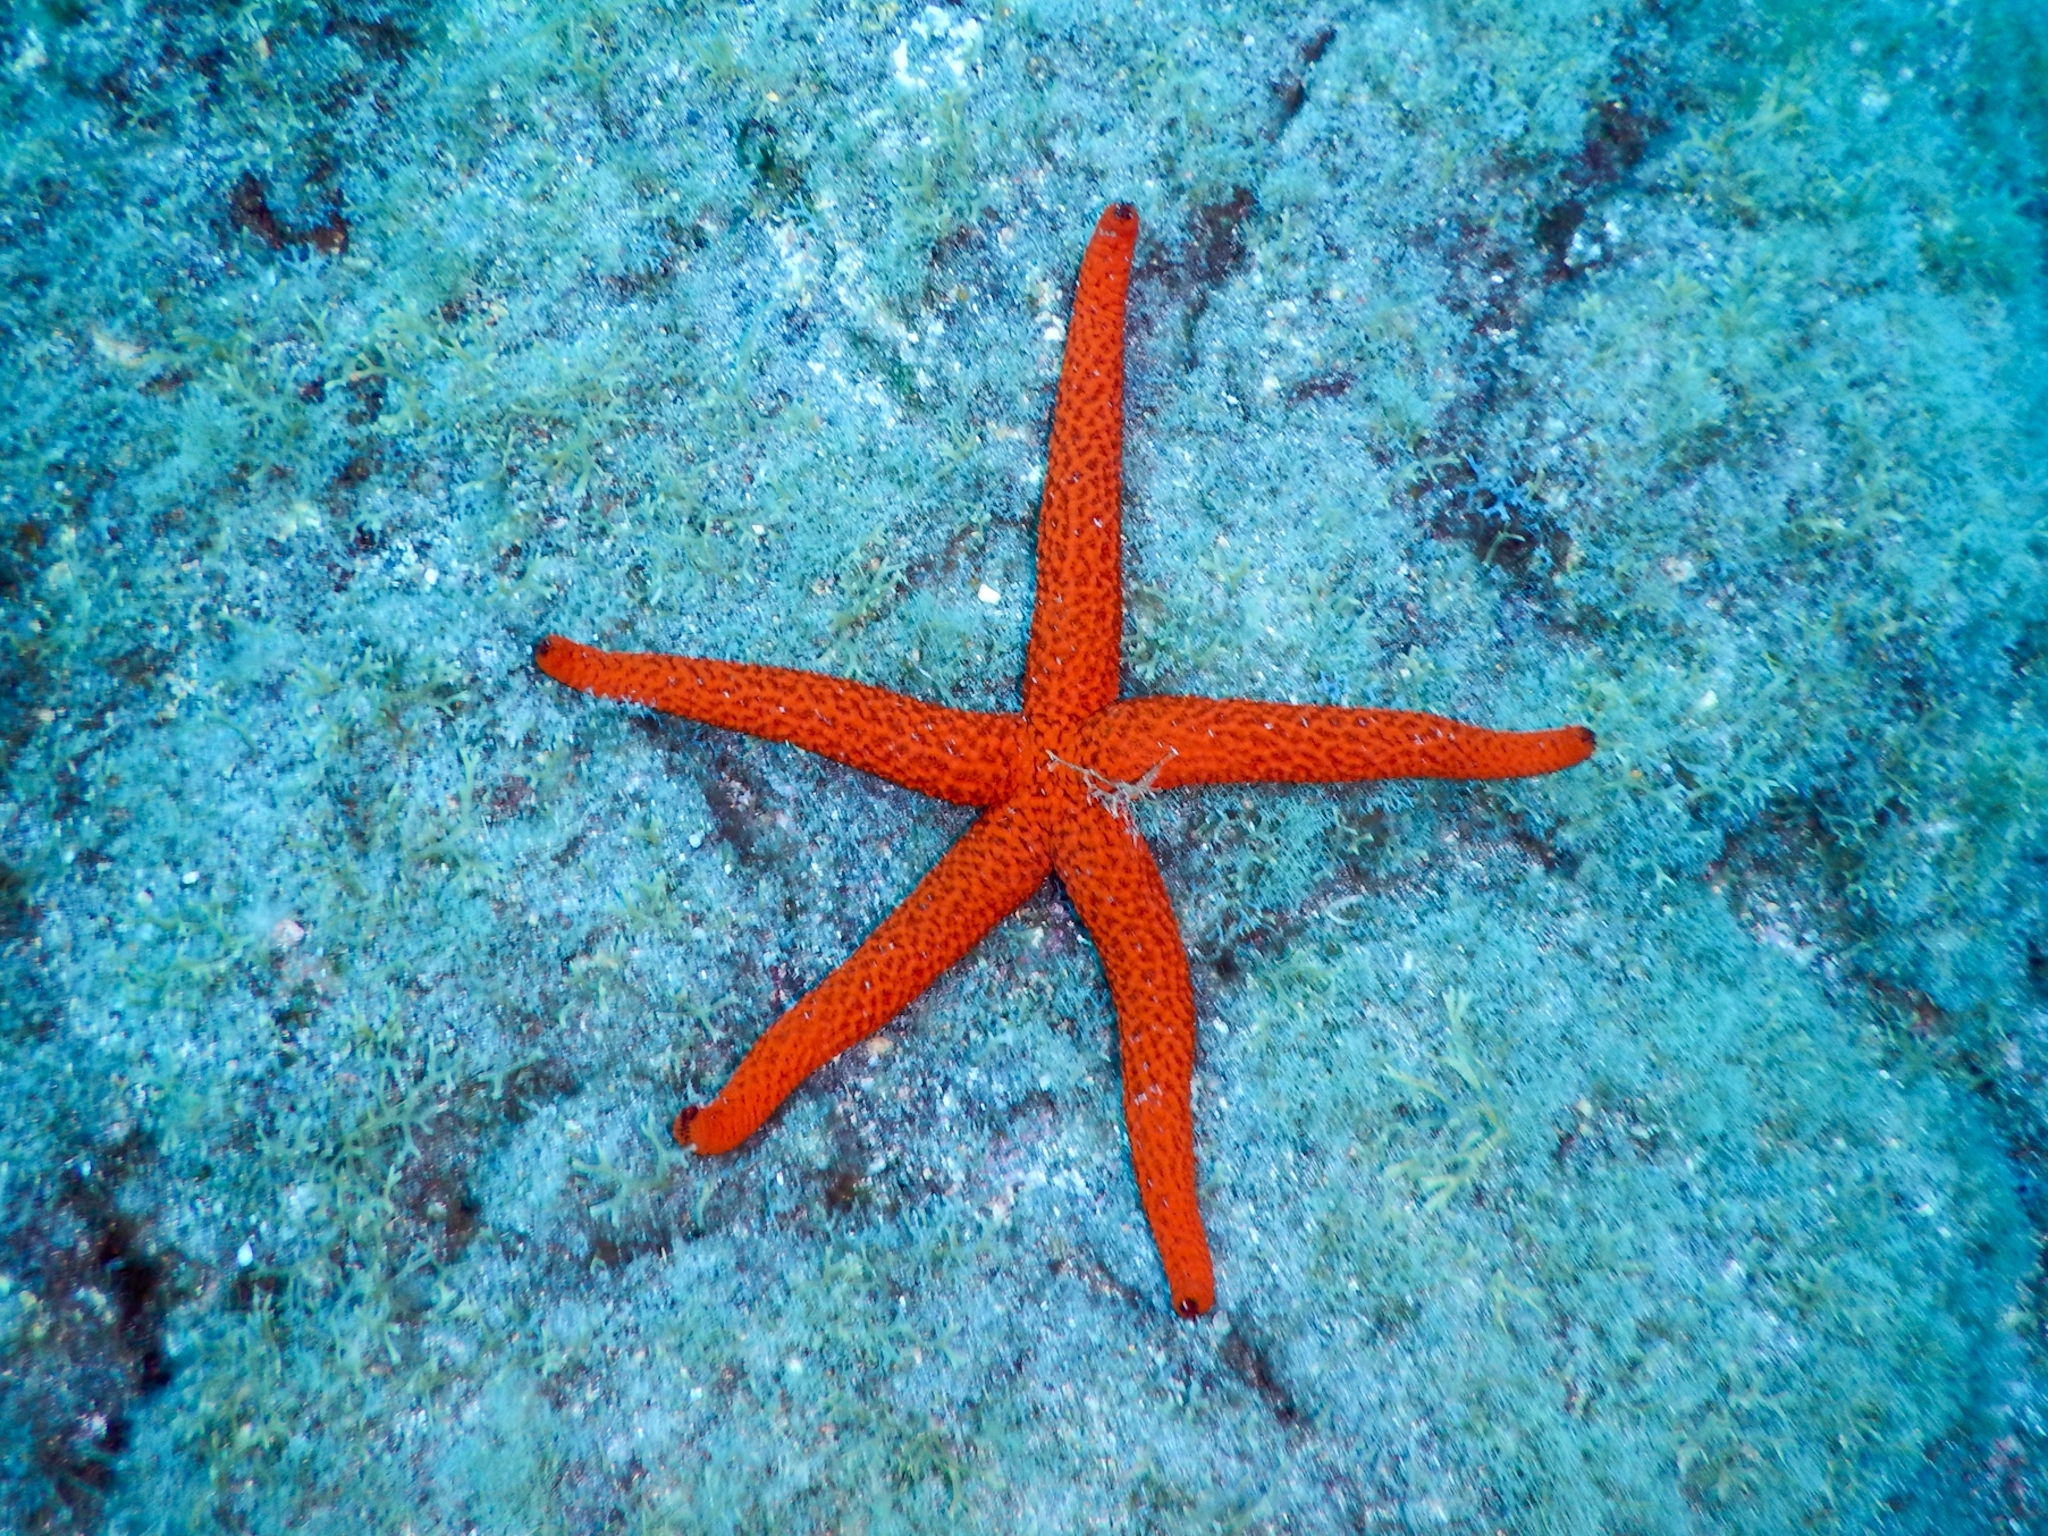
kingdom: Animalia
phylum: Echinodermata
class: Asteroidea
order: Spinulosida
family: Echinasteridae
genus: Echinaster
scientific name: Echinaster sepositus
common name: Red starfish
